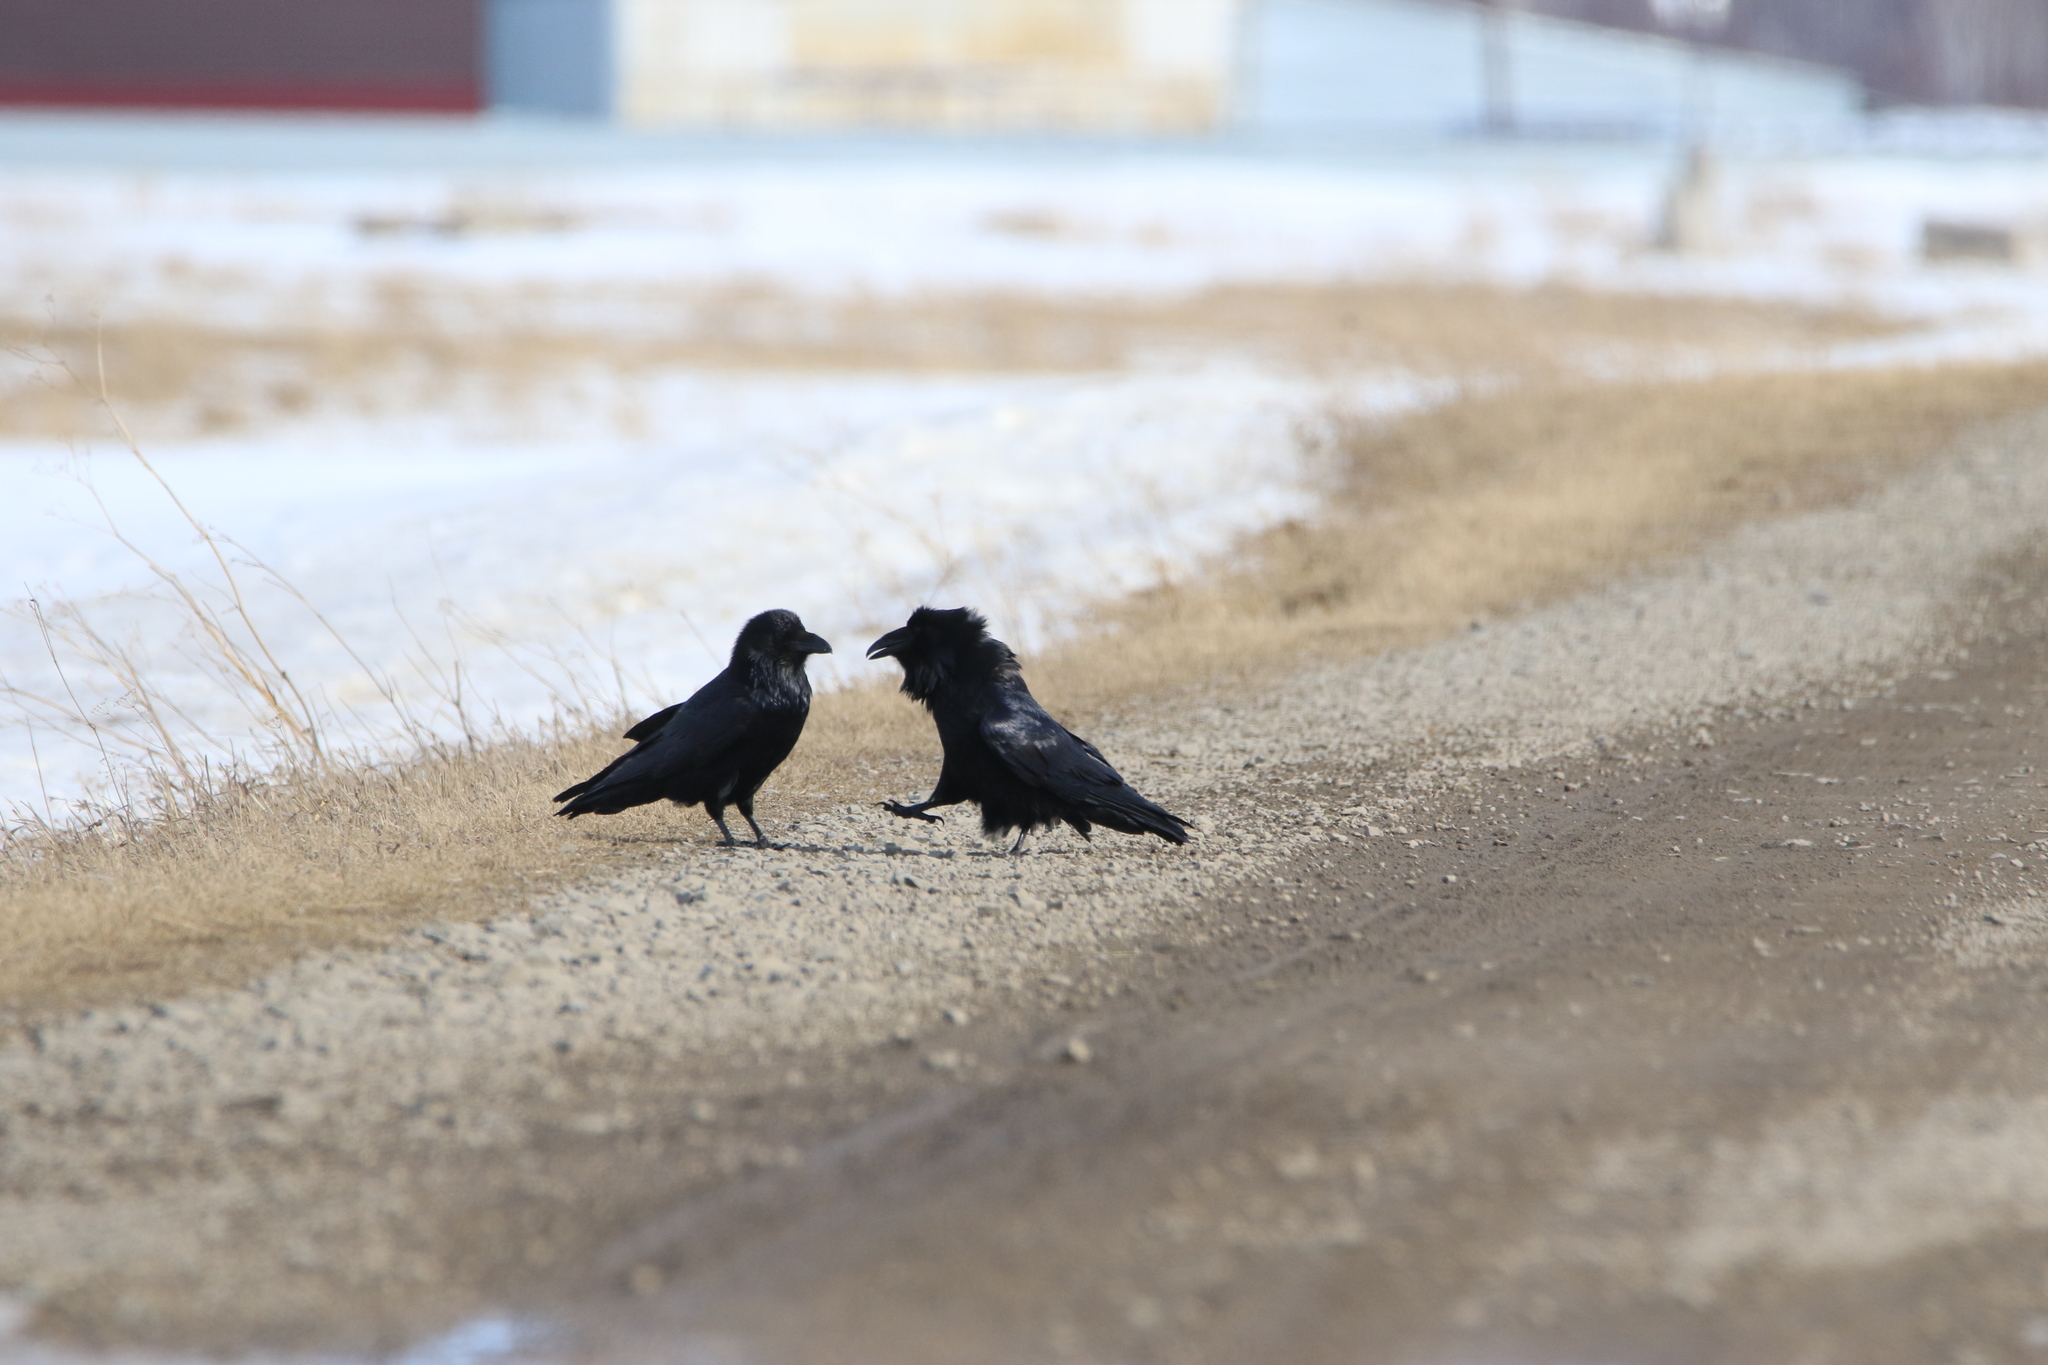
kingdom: Animalia
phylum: Chordata
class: Aves
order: Passeriformes
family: Corvidae
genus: Corvus
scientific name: Corvus corax
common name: Common raven
